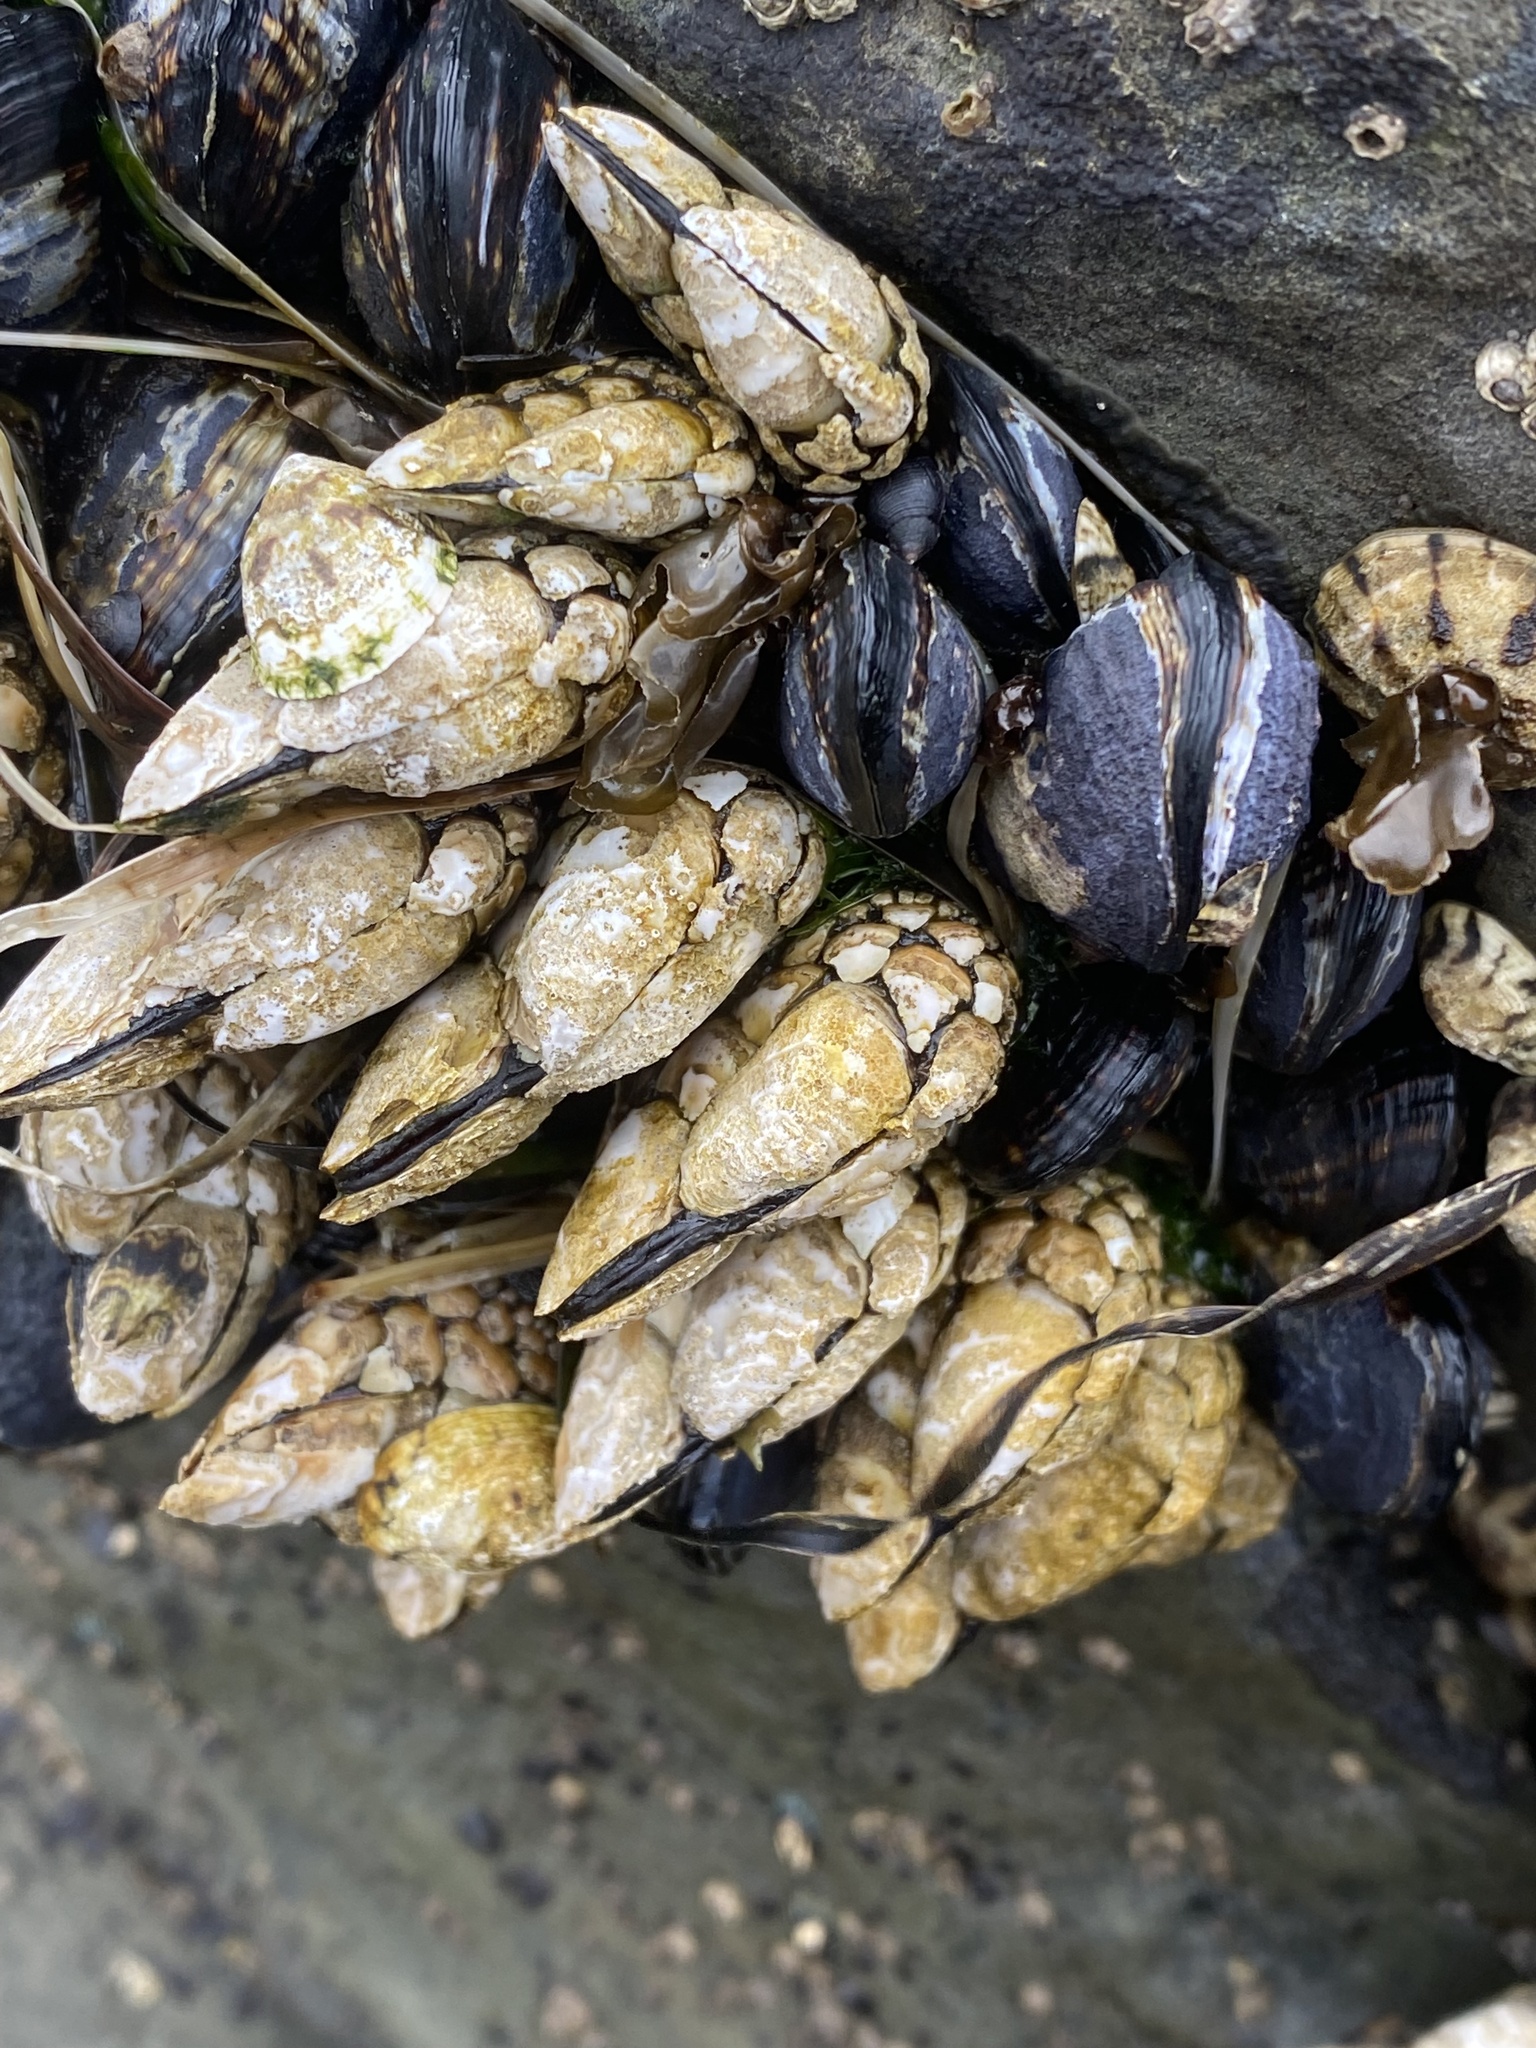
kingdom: Animalia
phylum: Arthropoda
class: Maxillopoda
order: Pedunculata
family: Pollicipedidae
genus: Pollicipes
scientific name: Pollicipes polymerus
